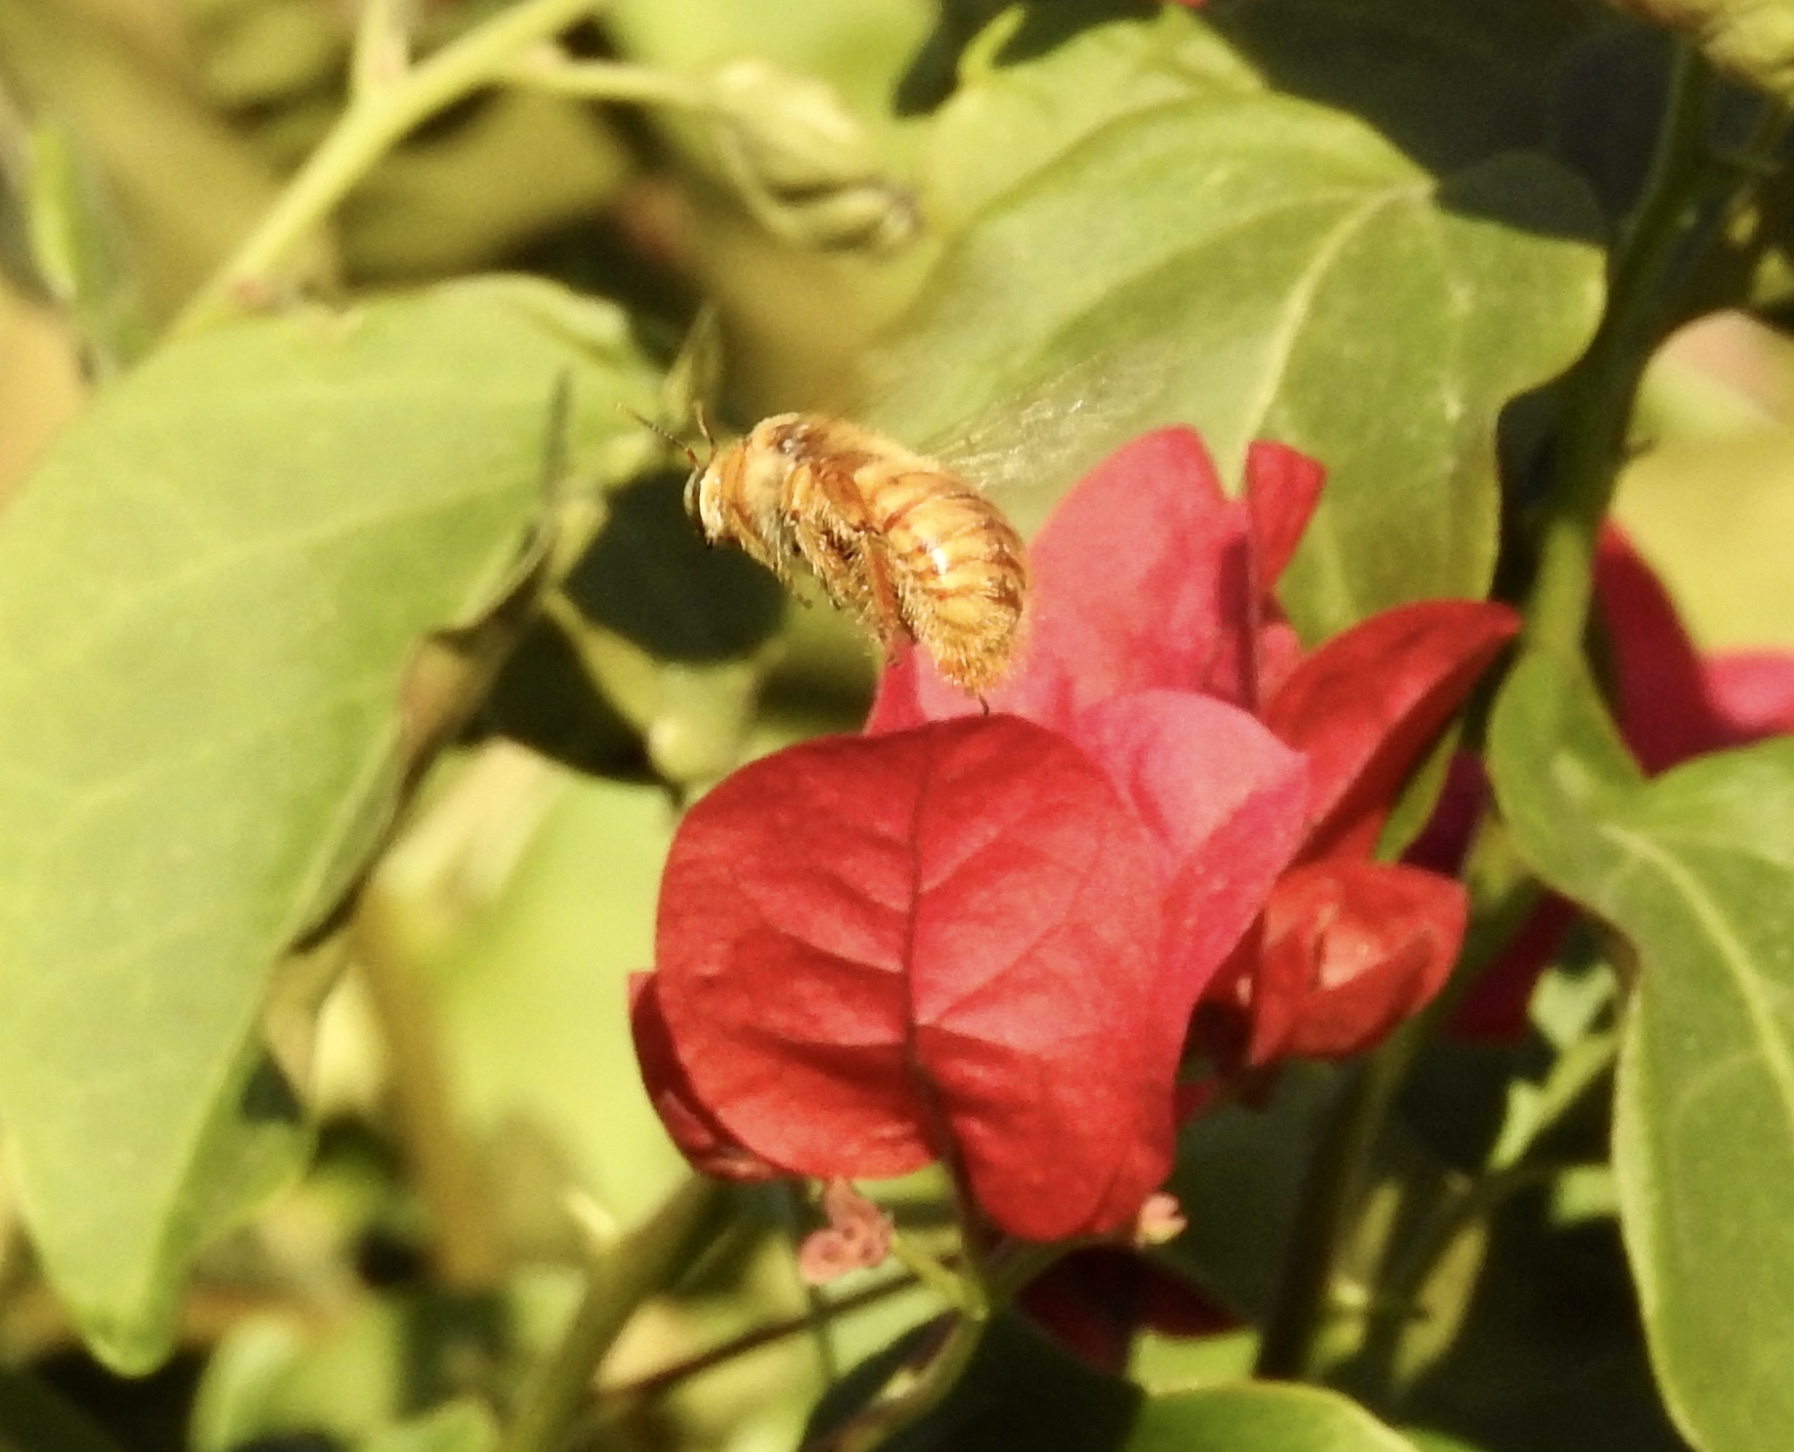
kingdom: Animalia
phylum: Arthropoda
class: Insecta
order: Hymenoptera
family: Apidae
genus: Xylocopa
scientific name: Xylocopa sonorina
